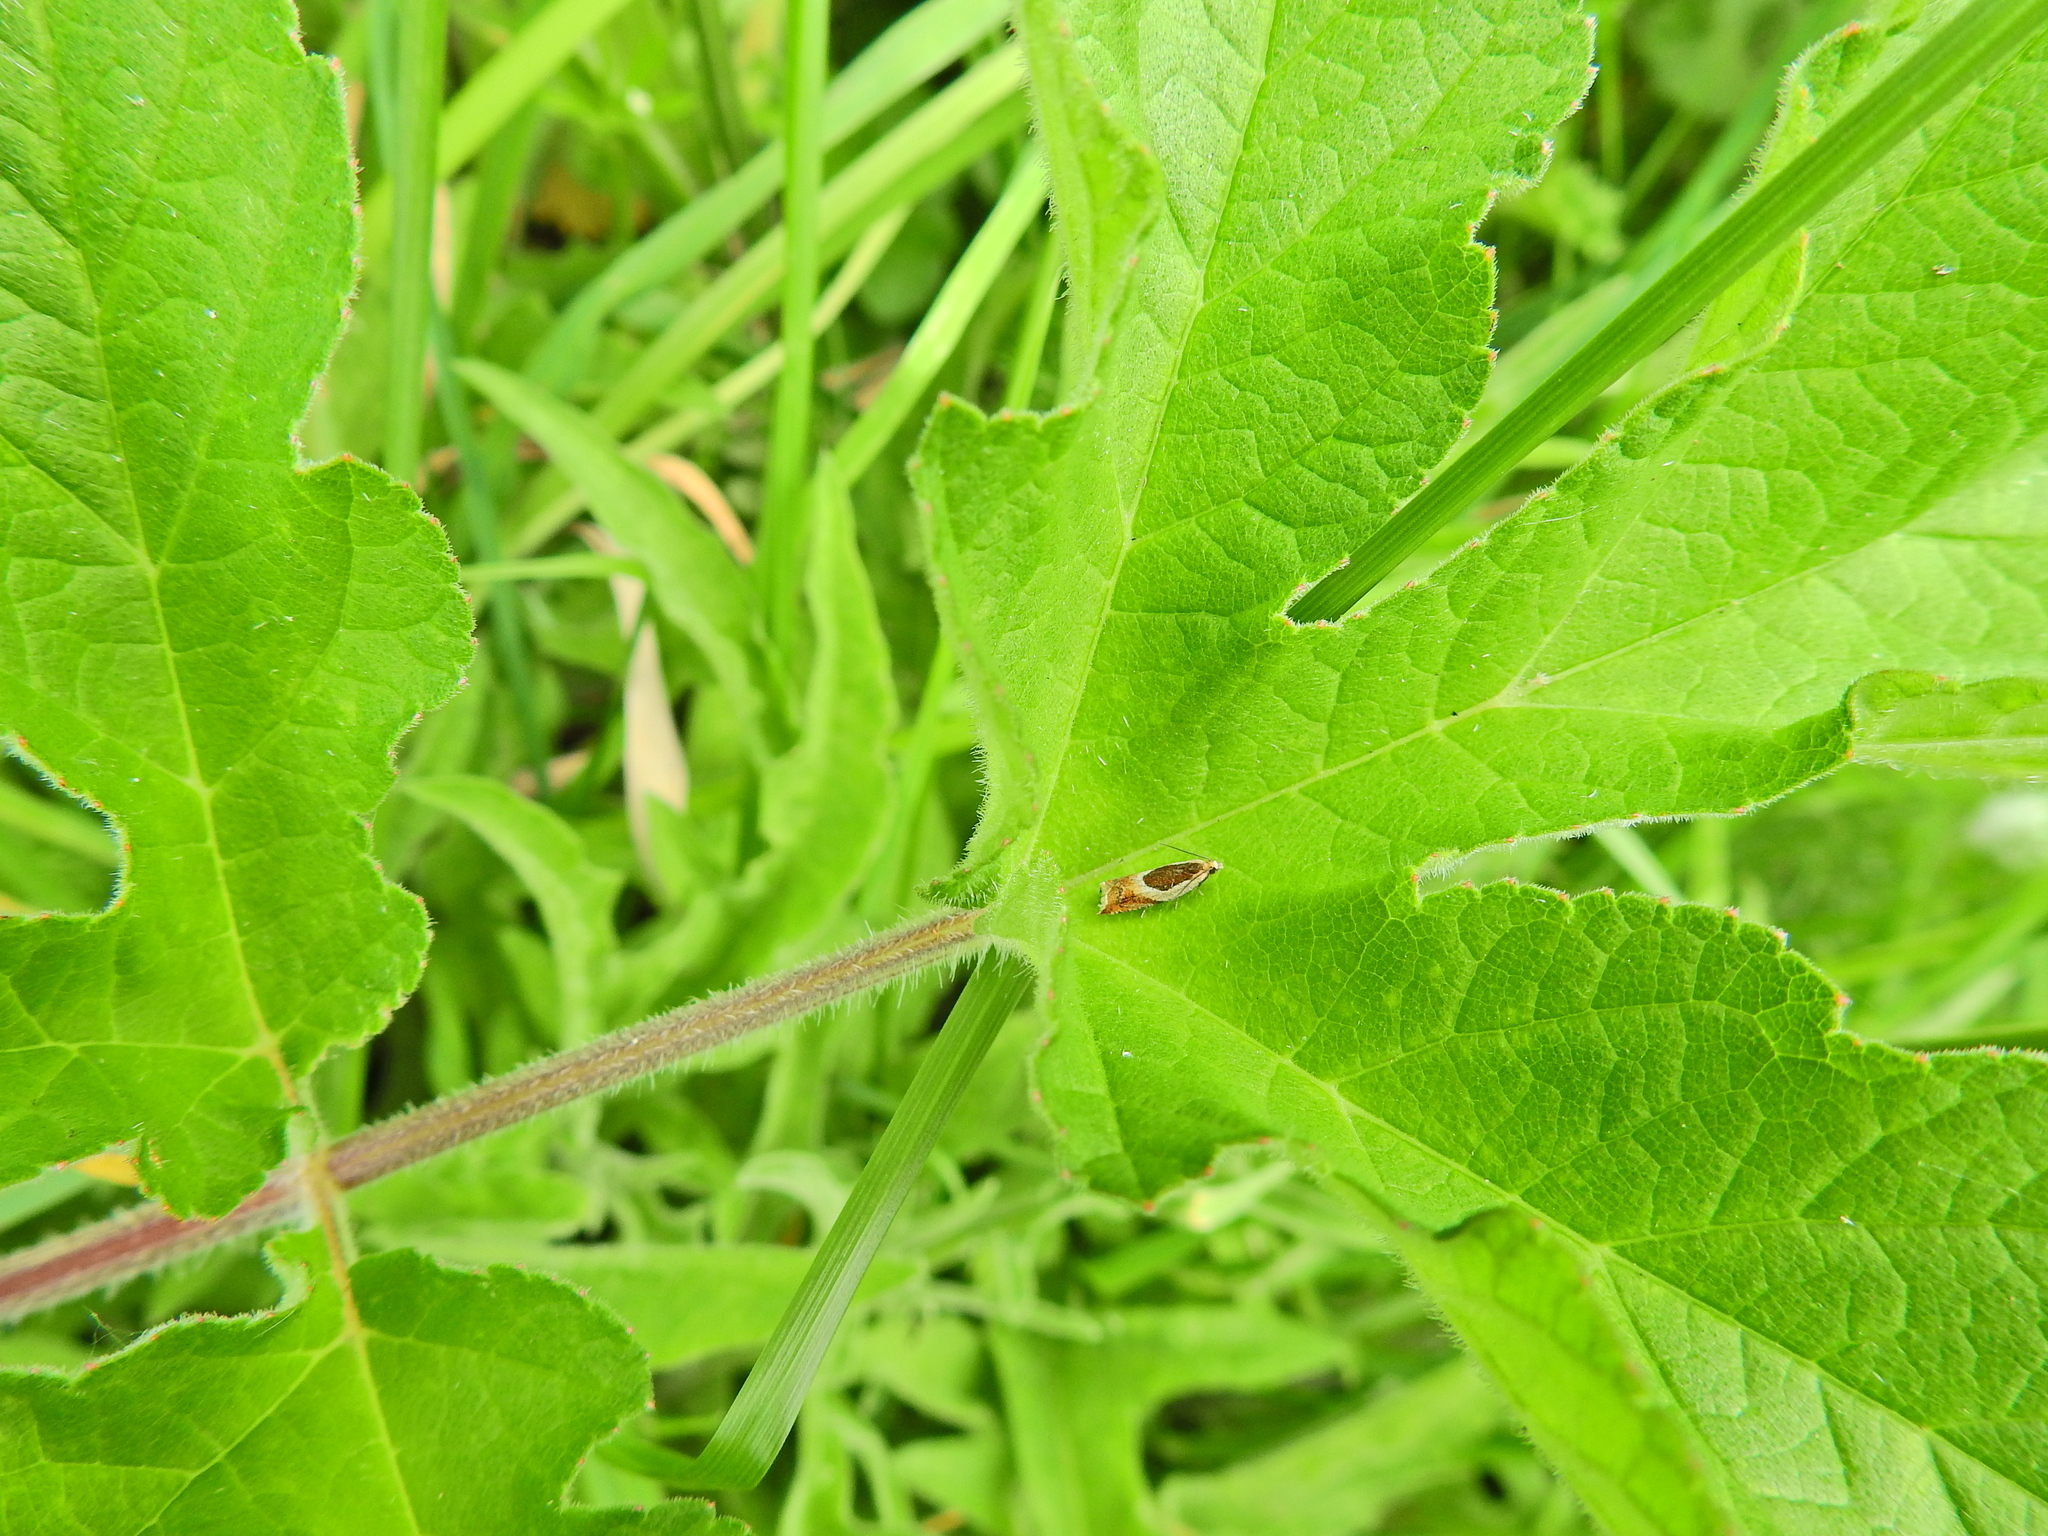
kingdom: Animalia
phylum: Arthropoda
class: Insecta
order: Lepidoptera
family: Tortricidae
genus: Ancylis
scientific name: Ancylis badiana
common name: Common roller
